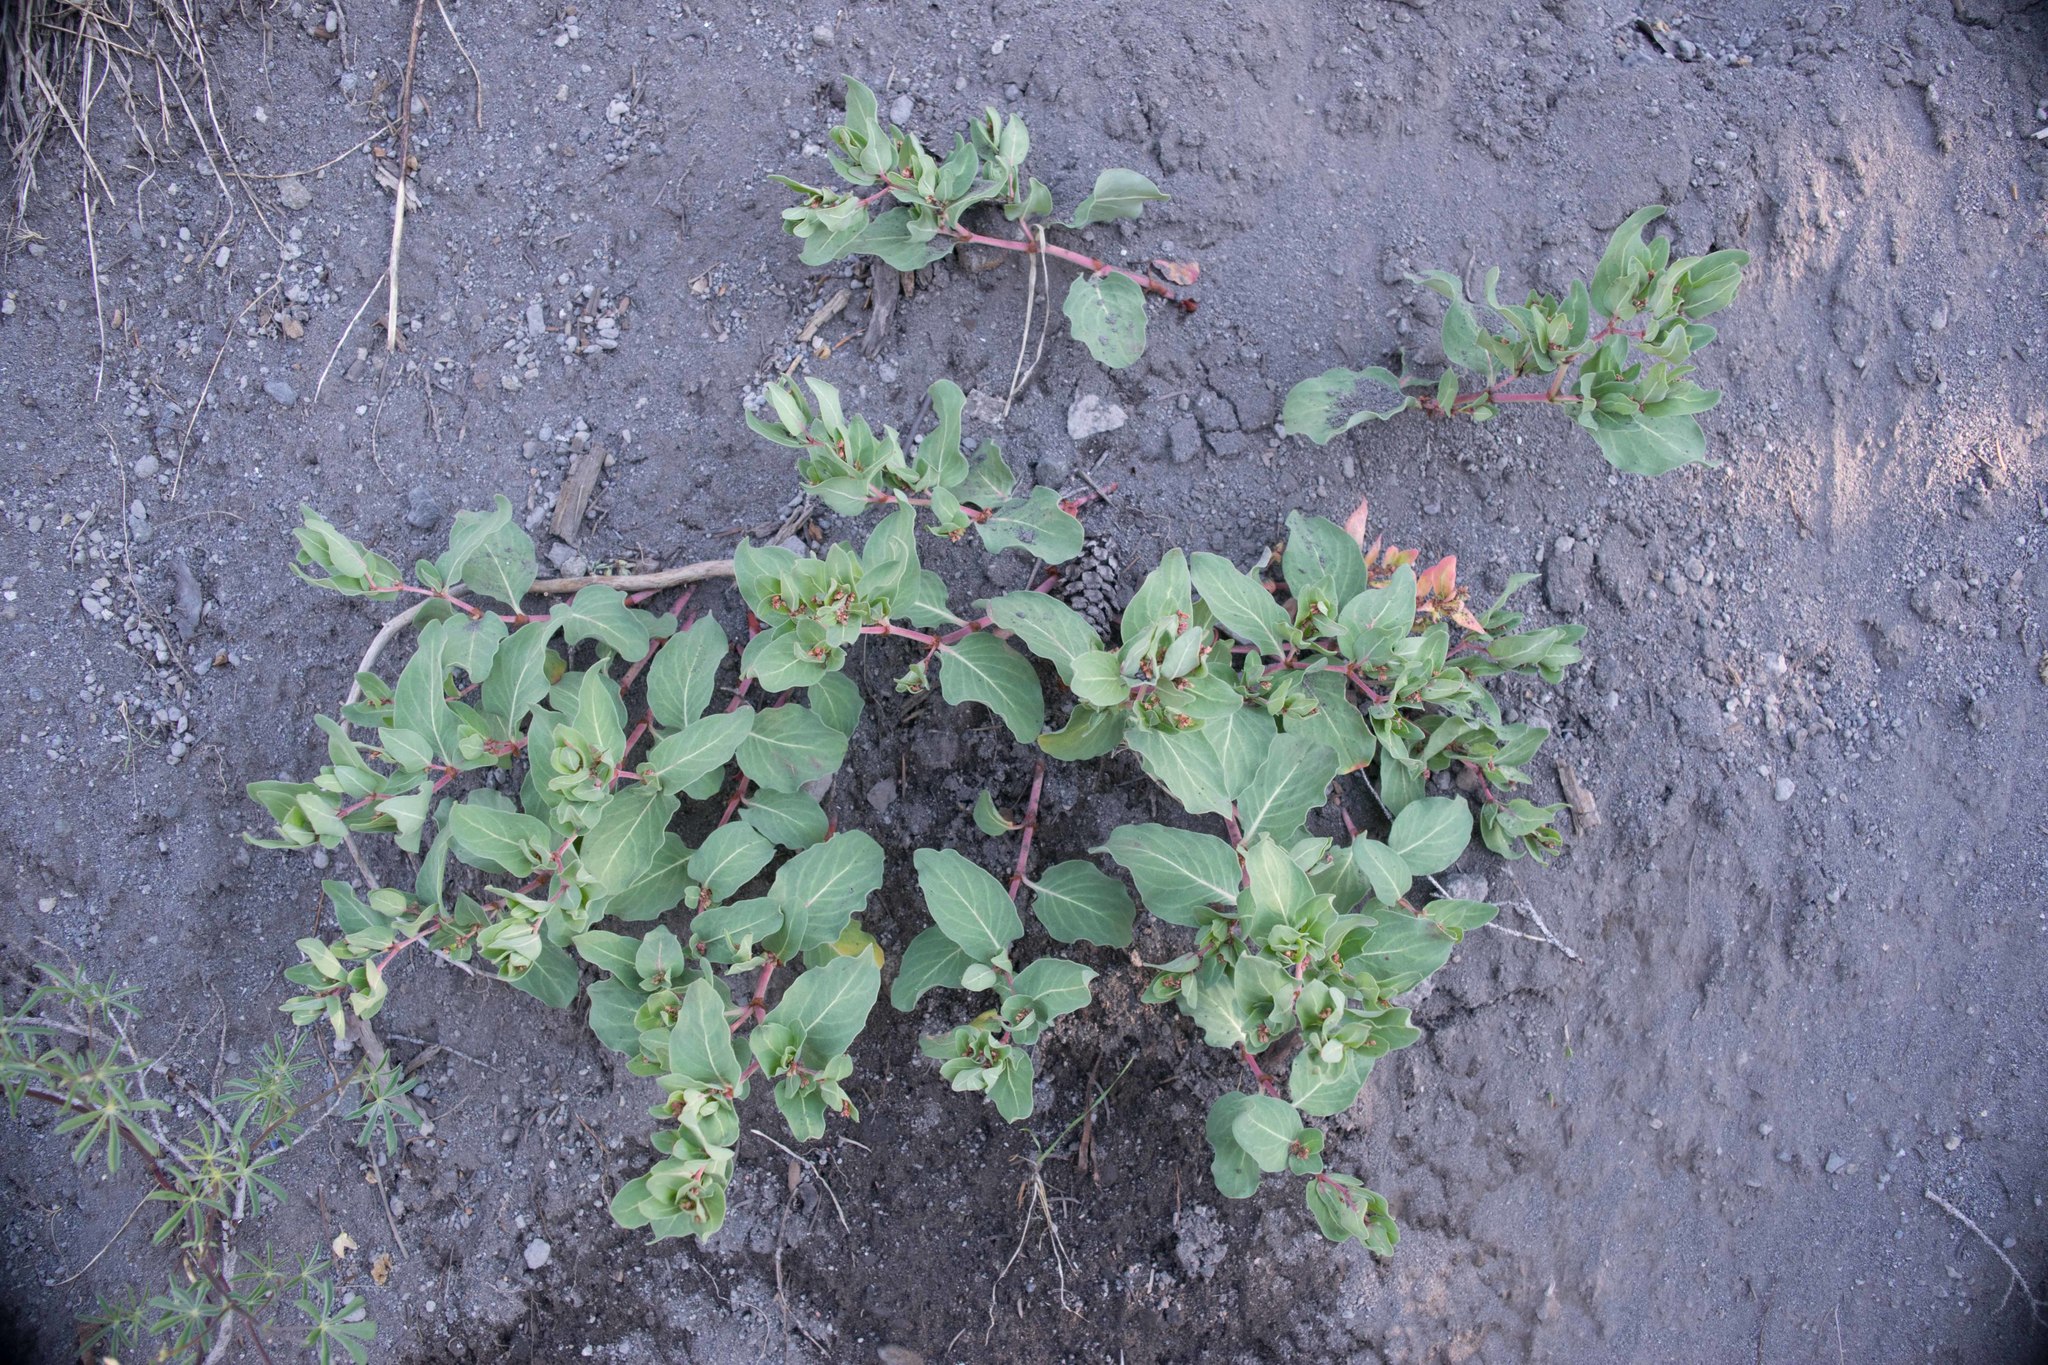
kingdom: Plantae
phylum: Tracheophyta
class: Magnoliopsida
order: Caryophyllales
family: Polygonaceae
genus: Koenigia
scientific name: Koenigia davisiae
